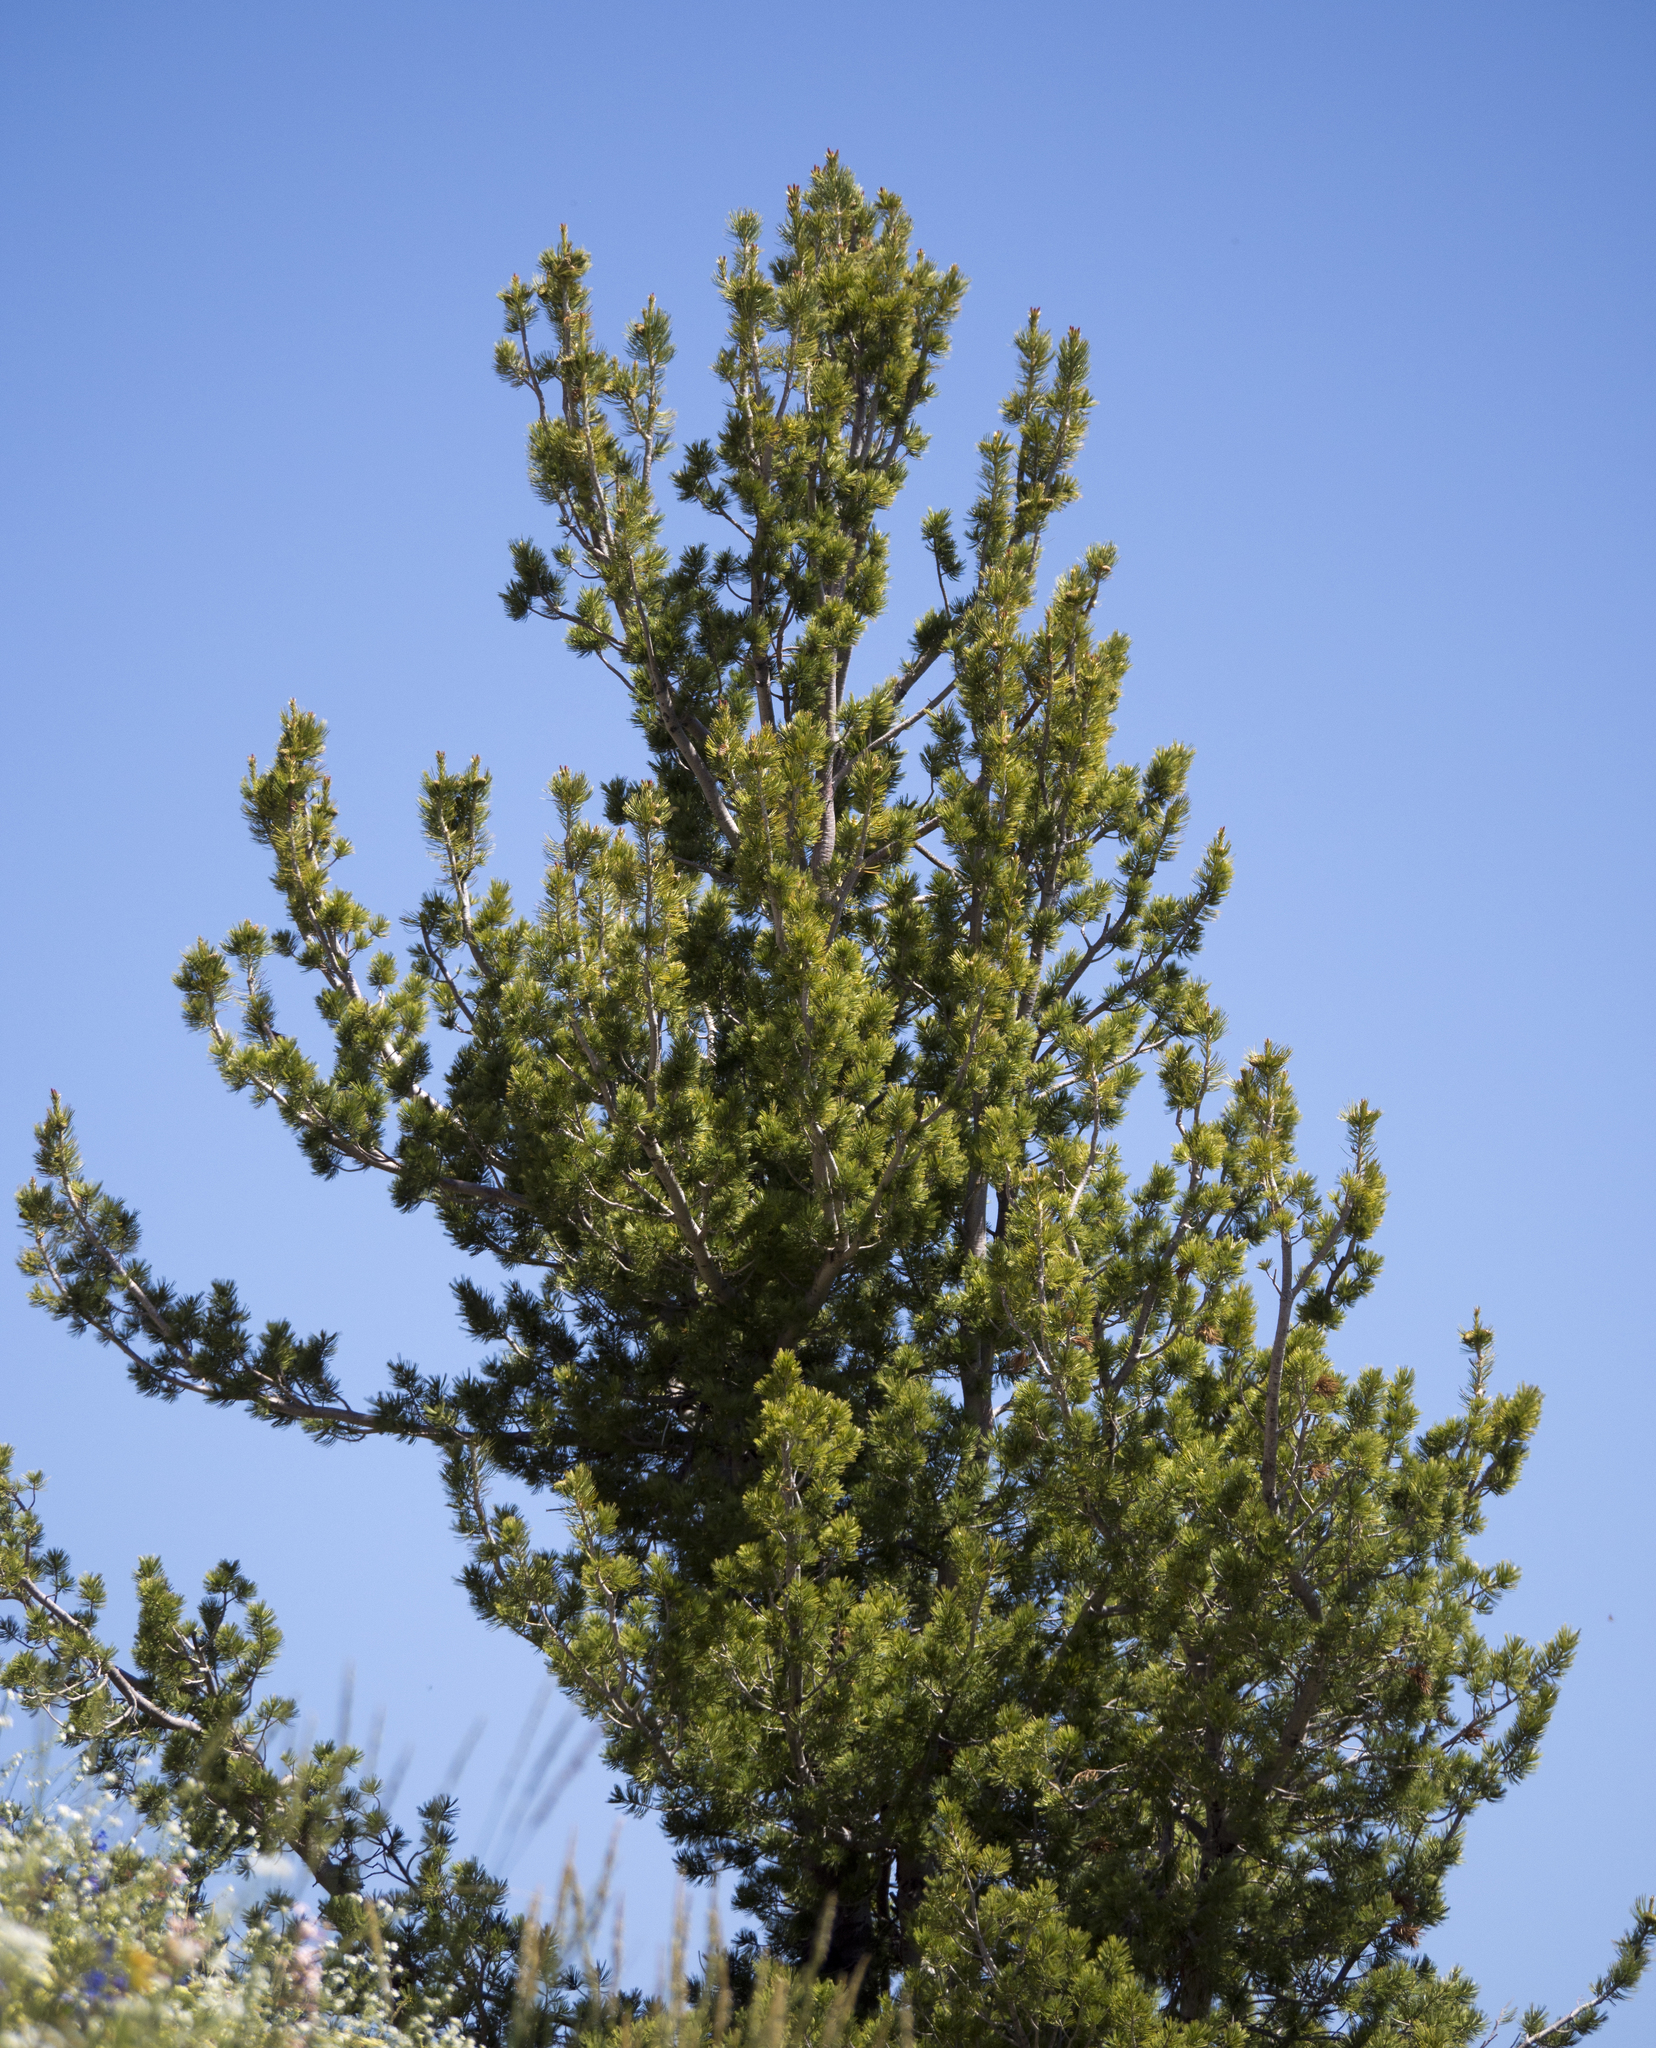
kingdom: Plantae
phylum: Tracheophyta
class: Pinopsida
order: Pinales
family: Pinaceae
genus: Pinus
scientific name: Pinus flexilis
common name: Limber pine
